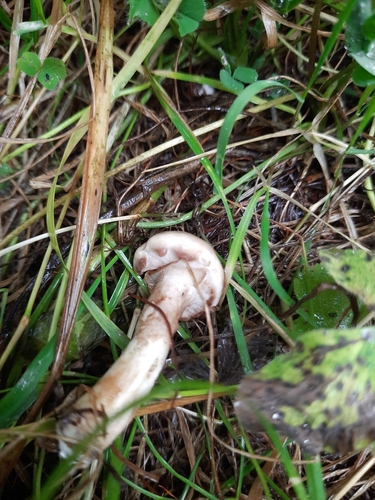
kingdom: Fungi
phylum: Basidiomycota
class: Agaricomycetes
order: Boletales
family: Suillaceae
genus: Suillus
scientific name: Suillus viscidus
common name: Sticky bolete
